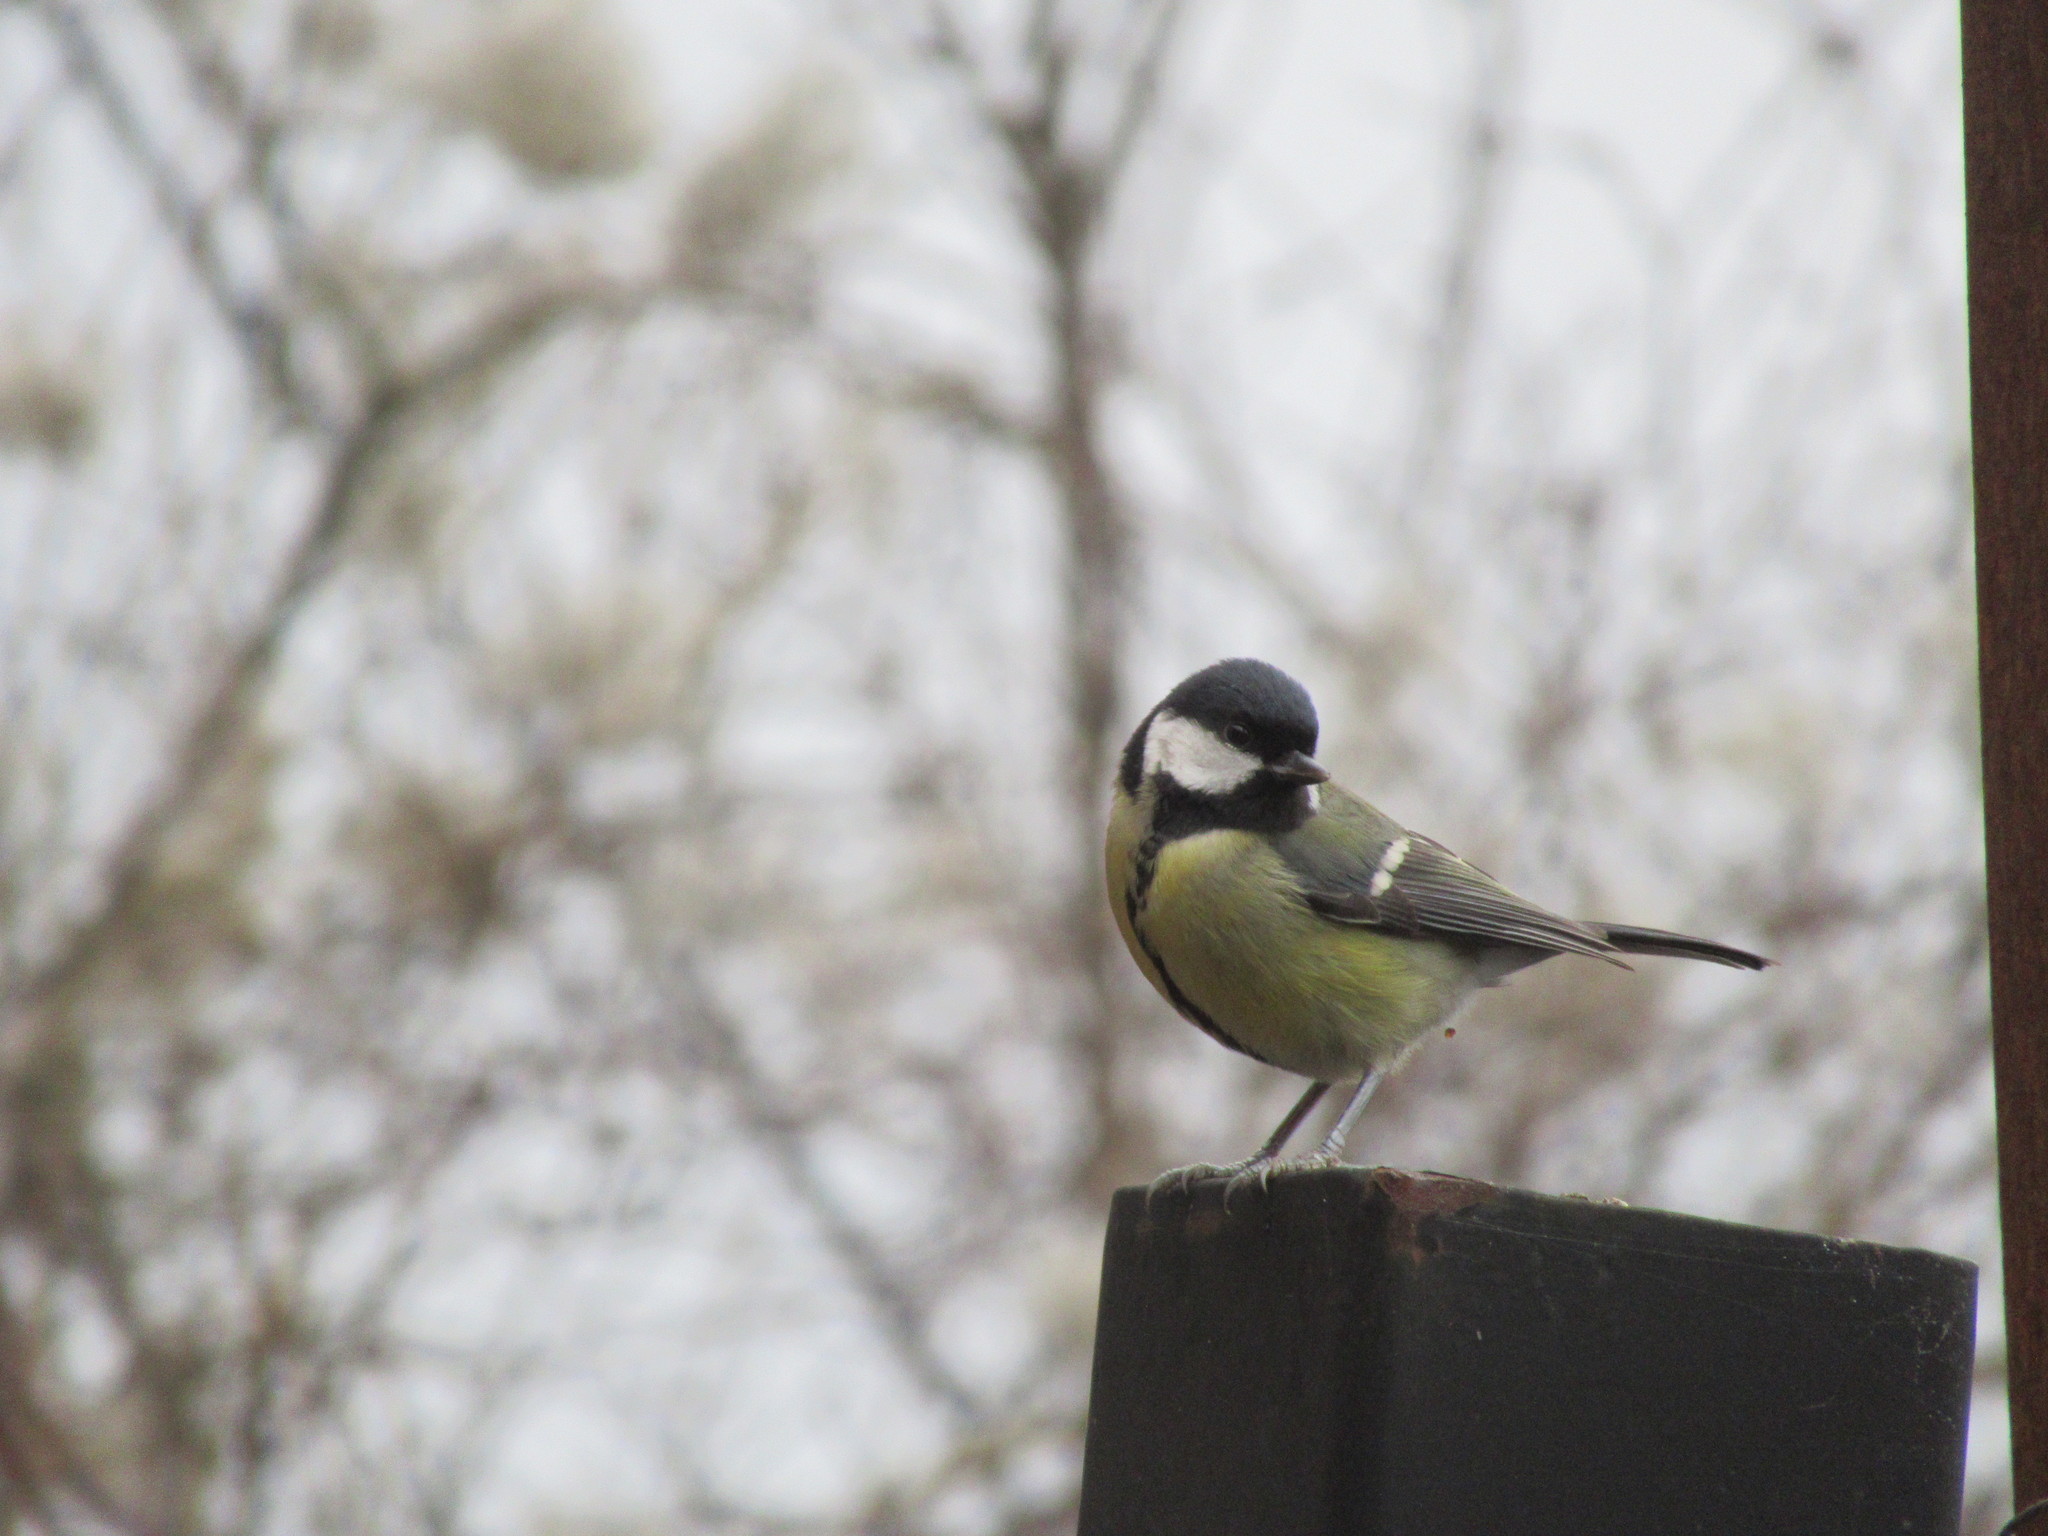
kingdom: Animalia
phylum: Chordata
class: Aves
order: Passeriformes
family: Paridae
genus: Parus
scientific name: Parus major
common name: Great tit
